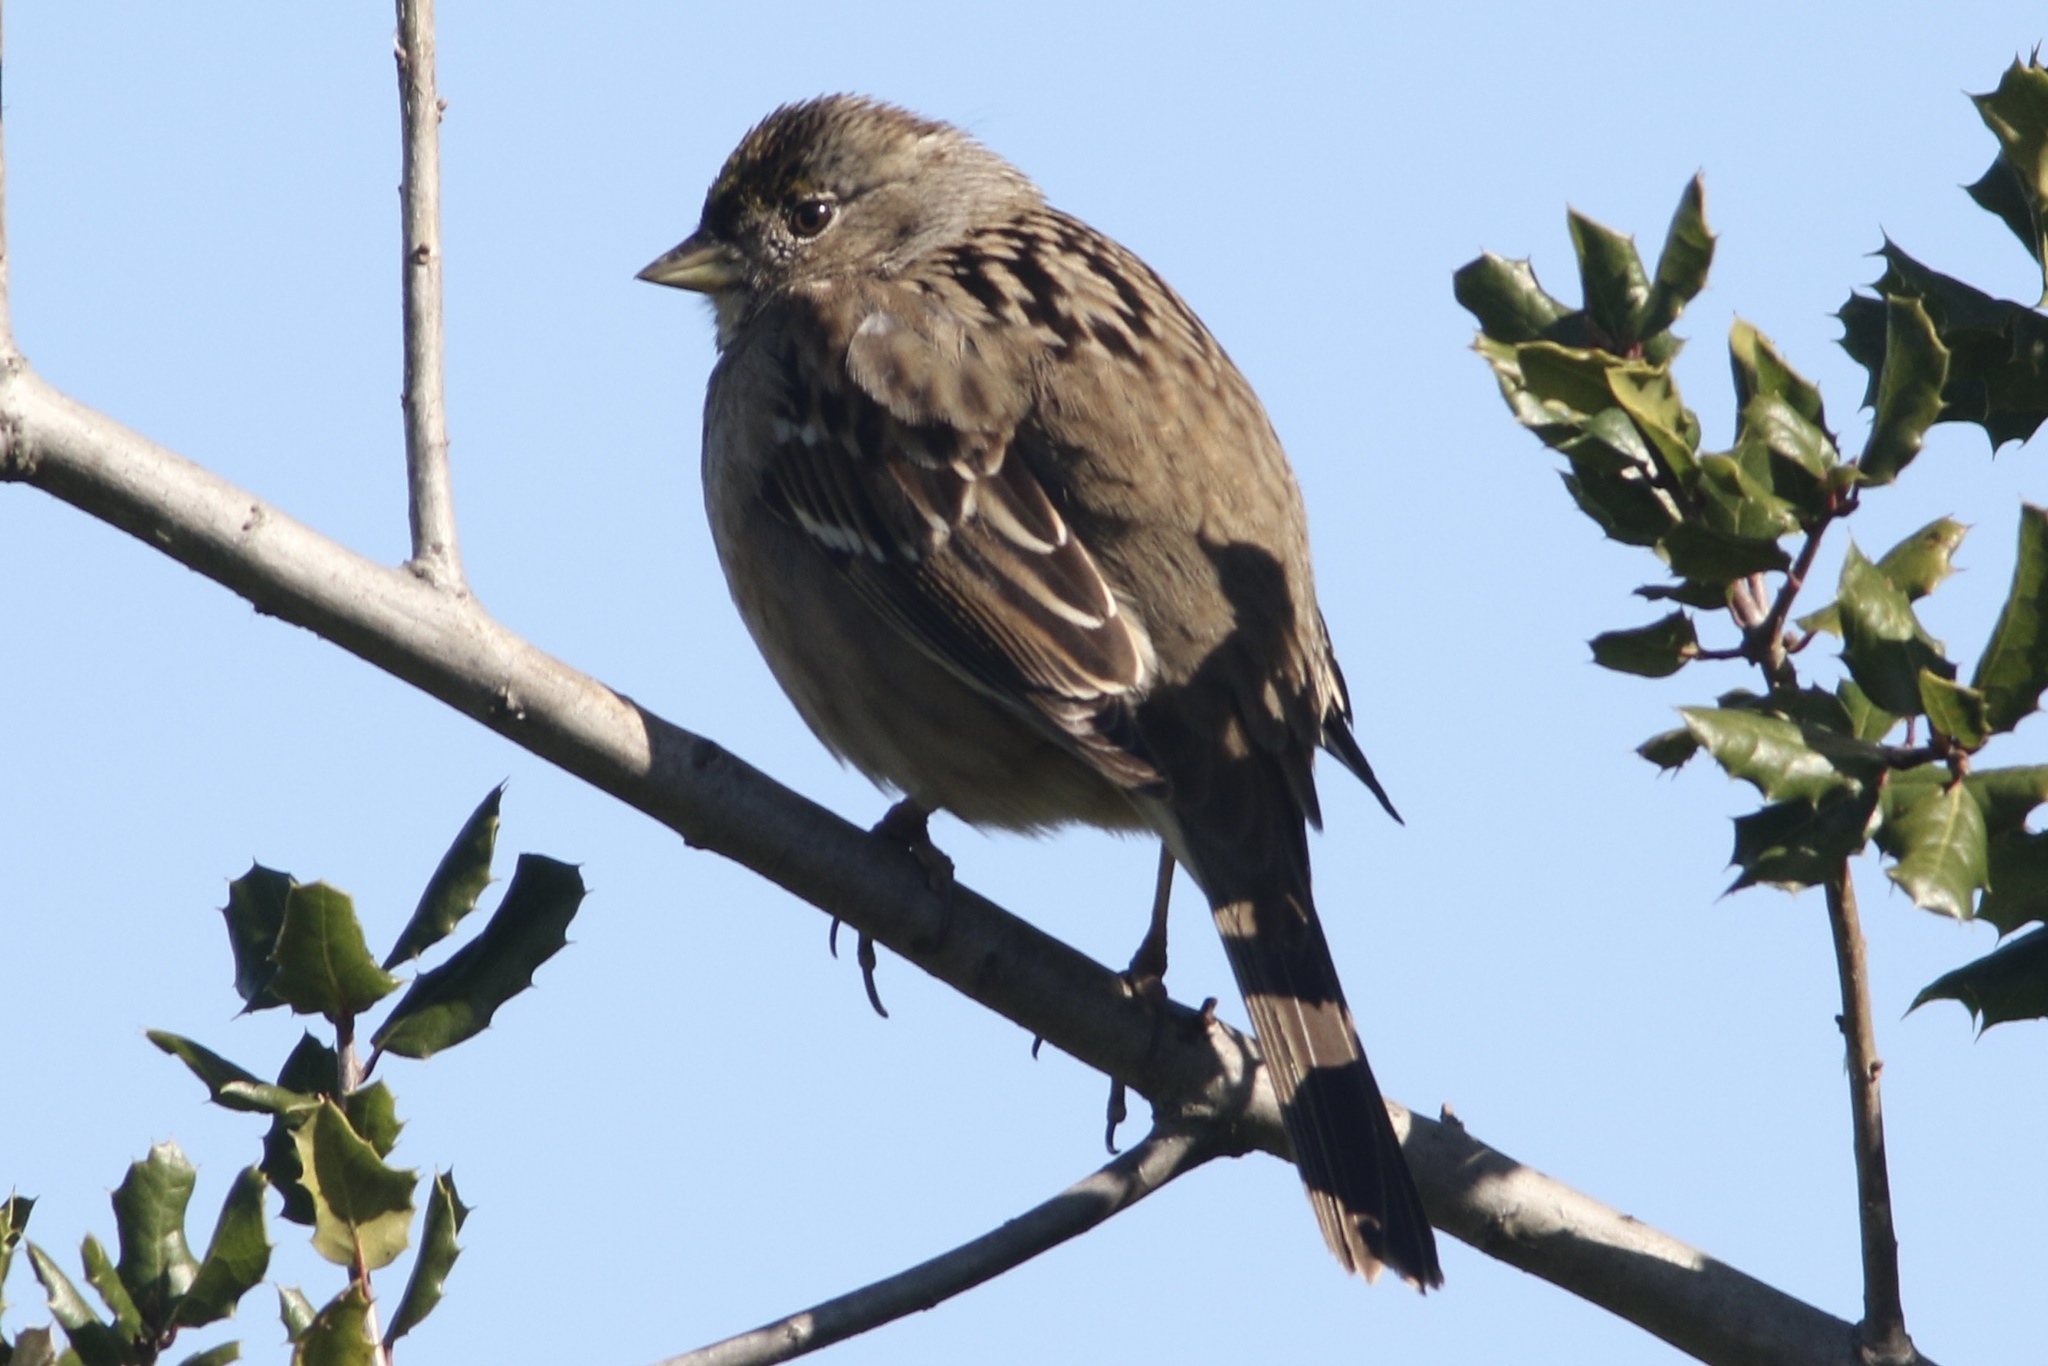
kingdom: Animalia
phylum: Chordata
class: Aves
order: Passeriformes
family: Passerellidae
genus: Zonotrichia
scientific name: Zonotrichia atricapilla
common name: Golden-crowned sparrow
